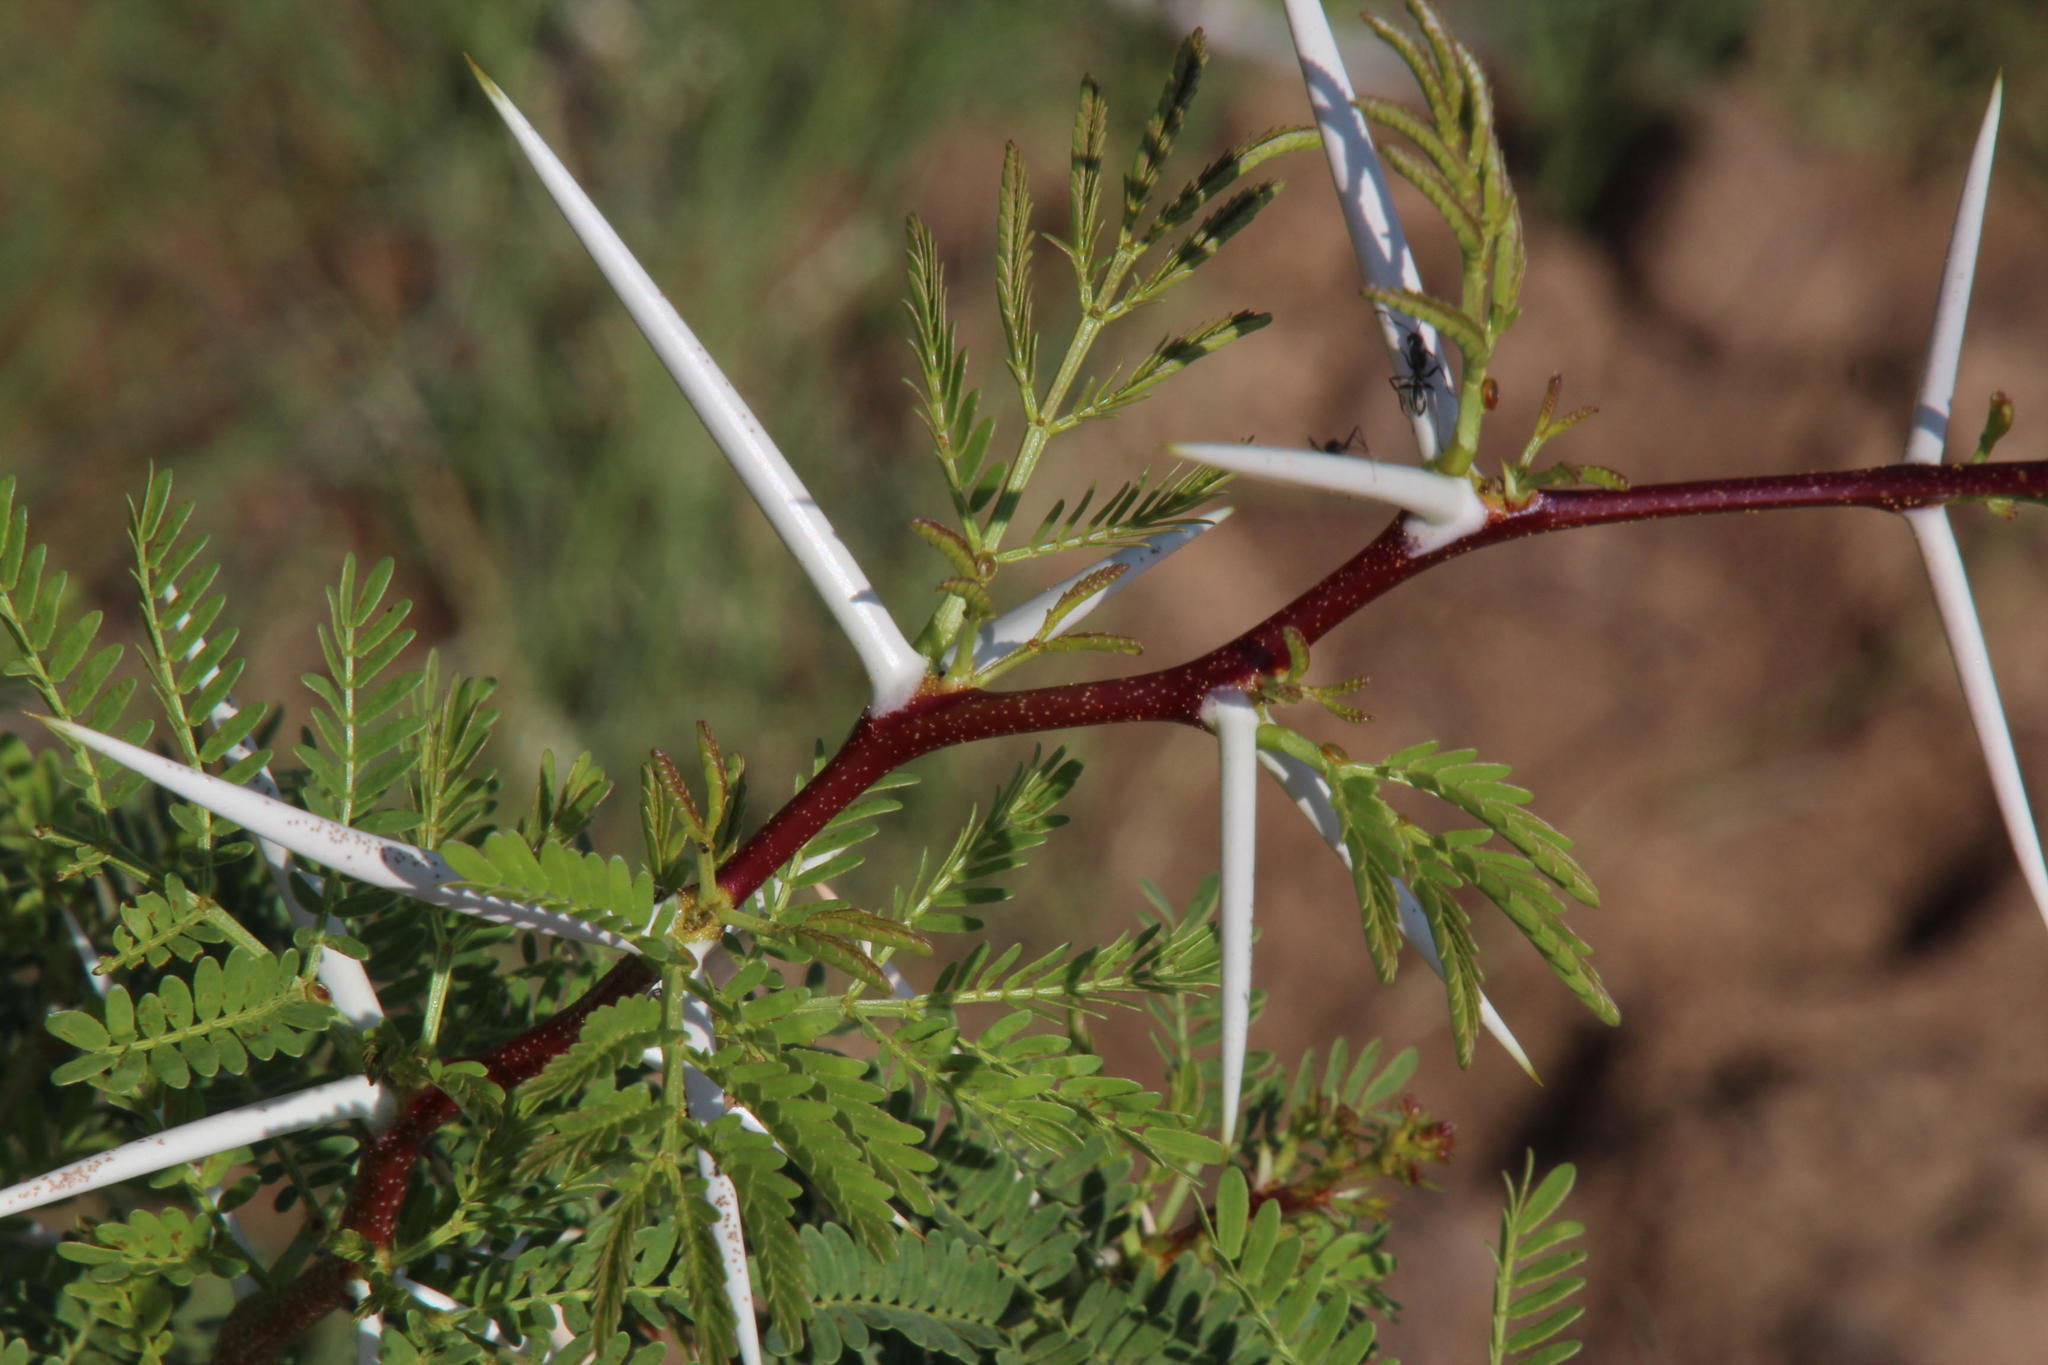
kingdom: Plantae
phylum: Tracheophyta
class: Magnoliopsida
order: Fabales
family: Fabaceae
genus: Vachellia
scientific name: Vachellia karroo
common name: Sweet thorn
